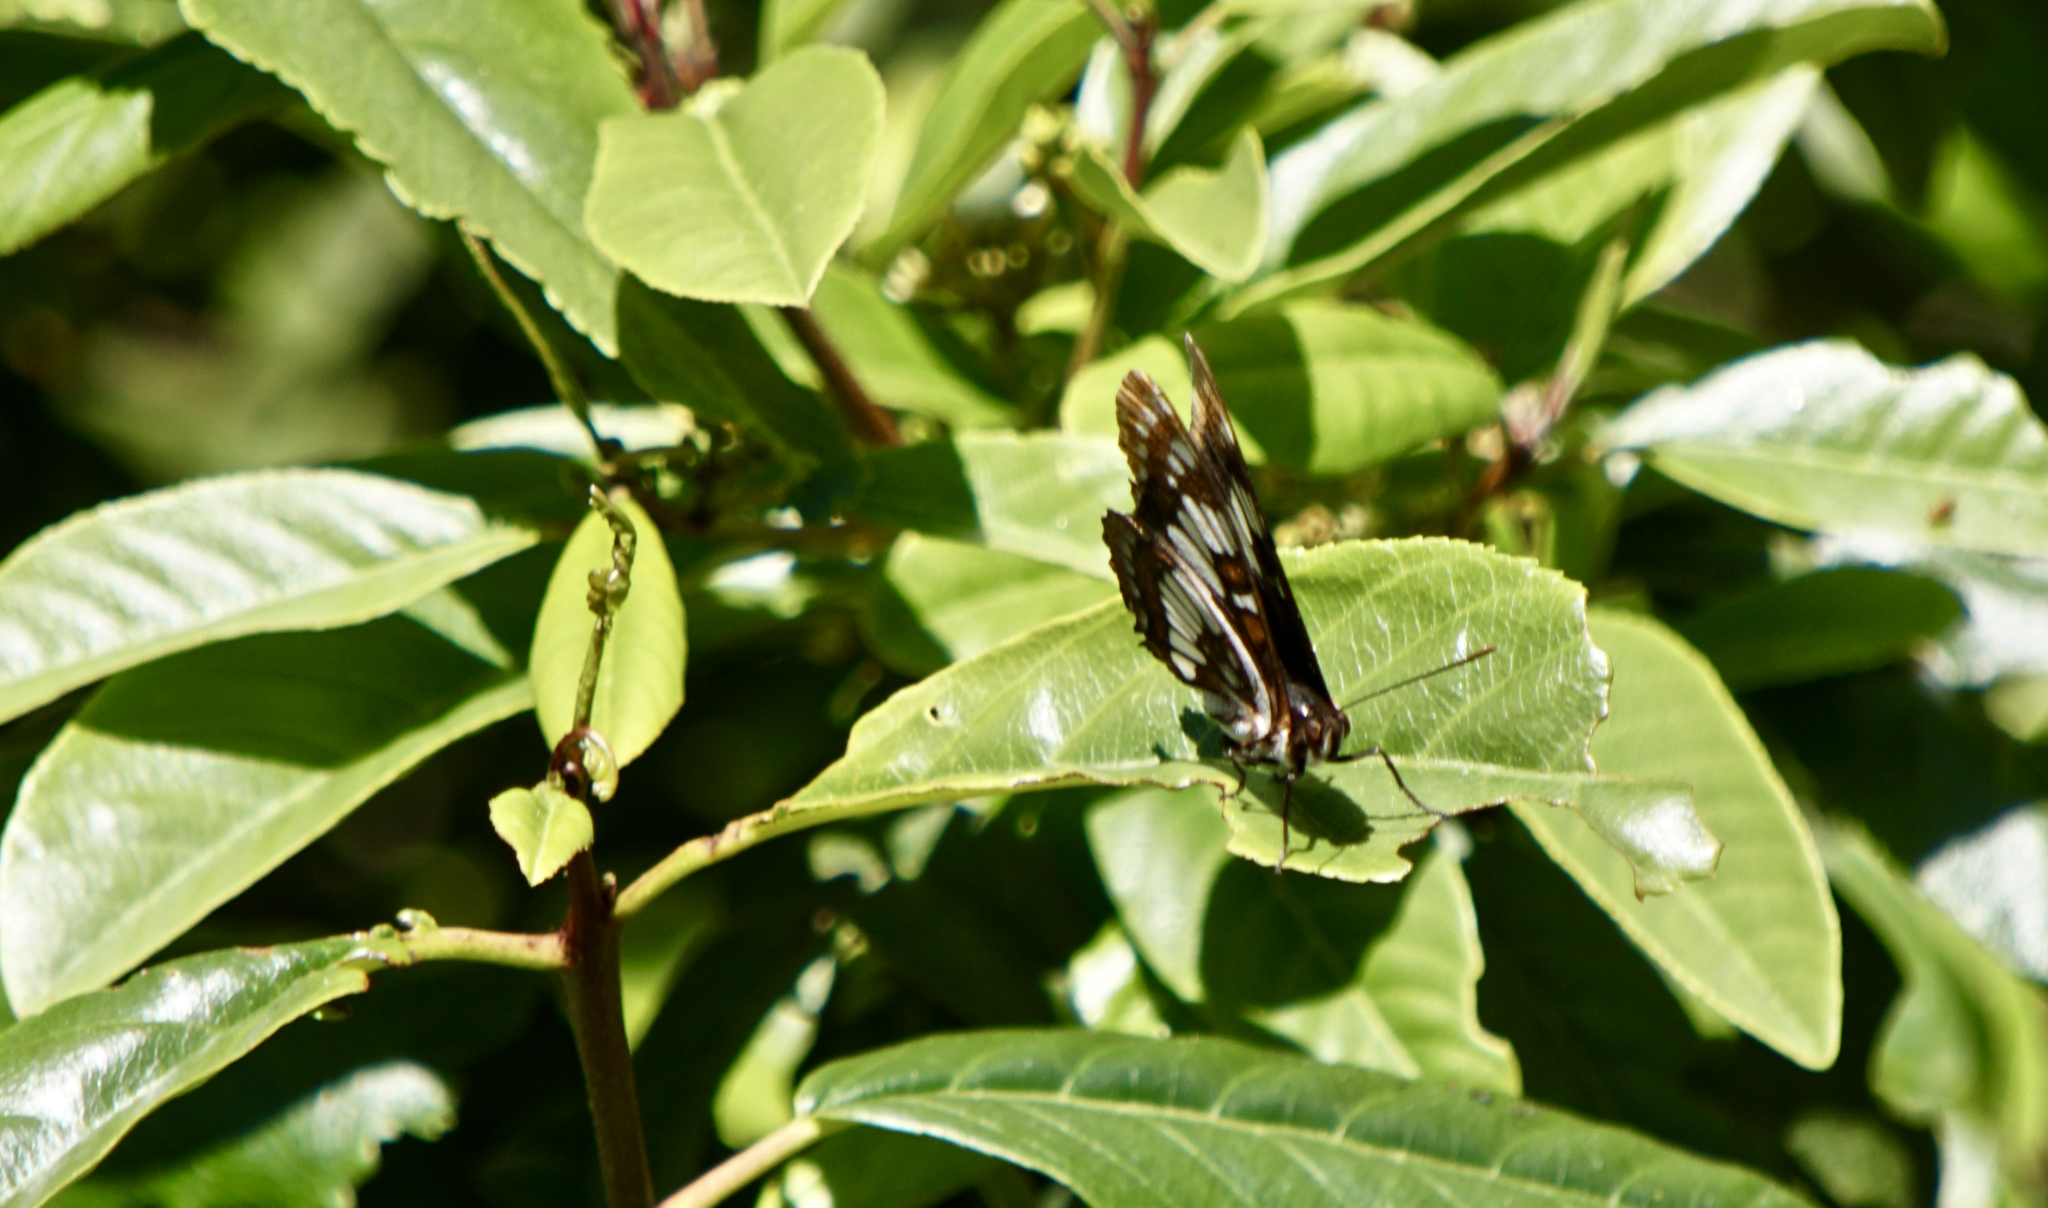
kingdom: Animalia
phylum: Arthropoda
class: Insecta
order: Lepidoptera
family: Nymphalidae
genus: Limenitis
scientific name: Limenitis lorquini
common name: Lorquin's admiral
